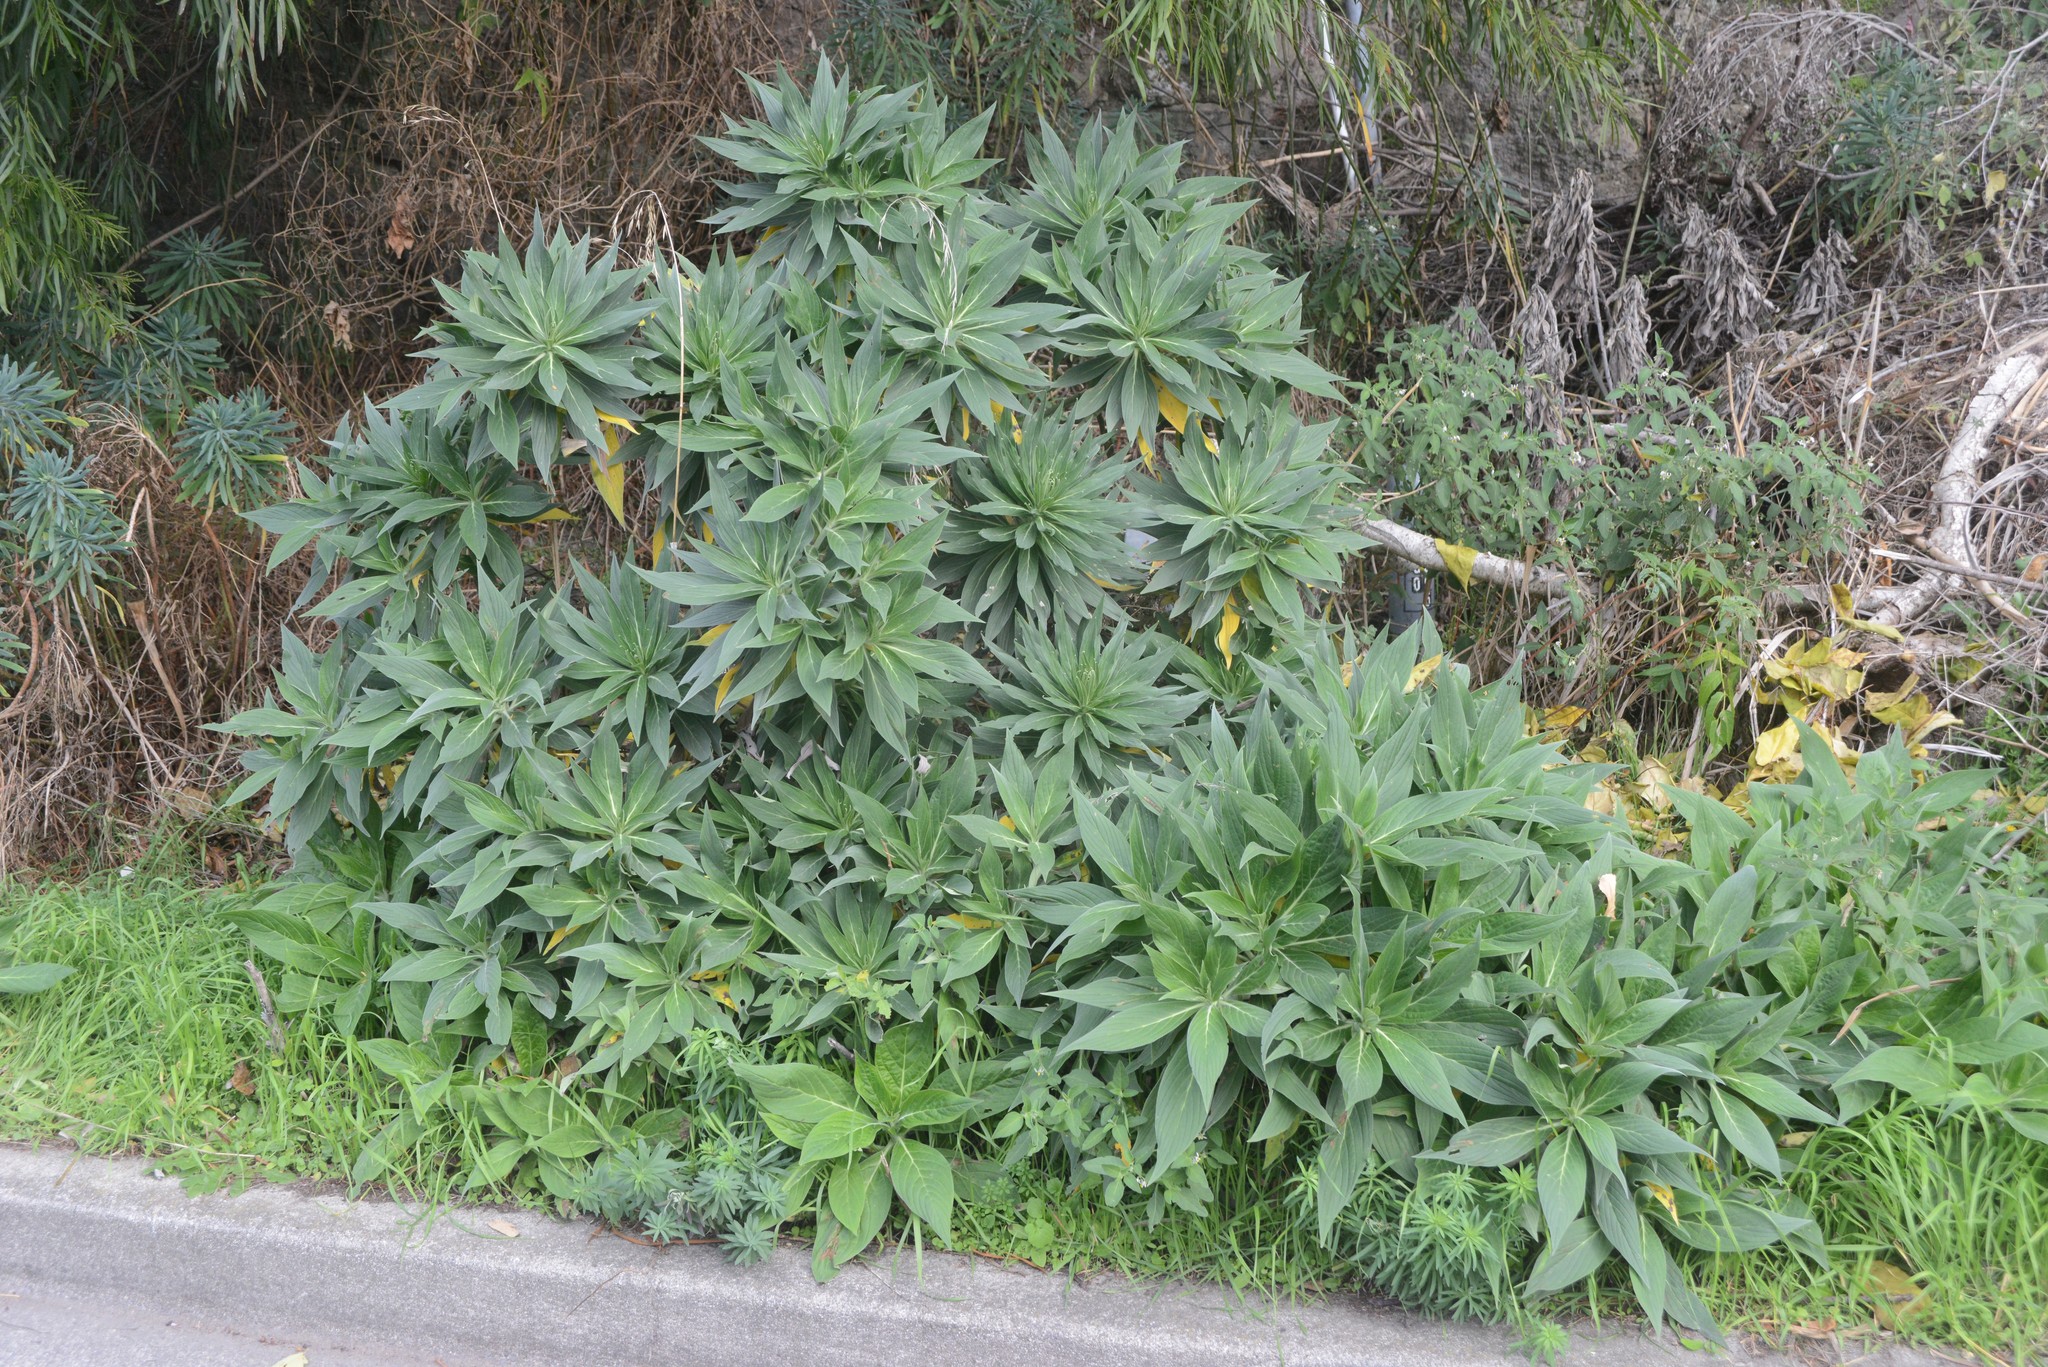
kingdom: Plantae
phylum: Tracheophyta
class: Magnoliopsida
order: Boraginales
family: Boraginaceae
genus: Echium
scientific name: Echium candicans
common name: Pride of madeira
